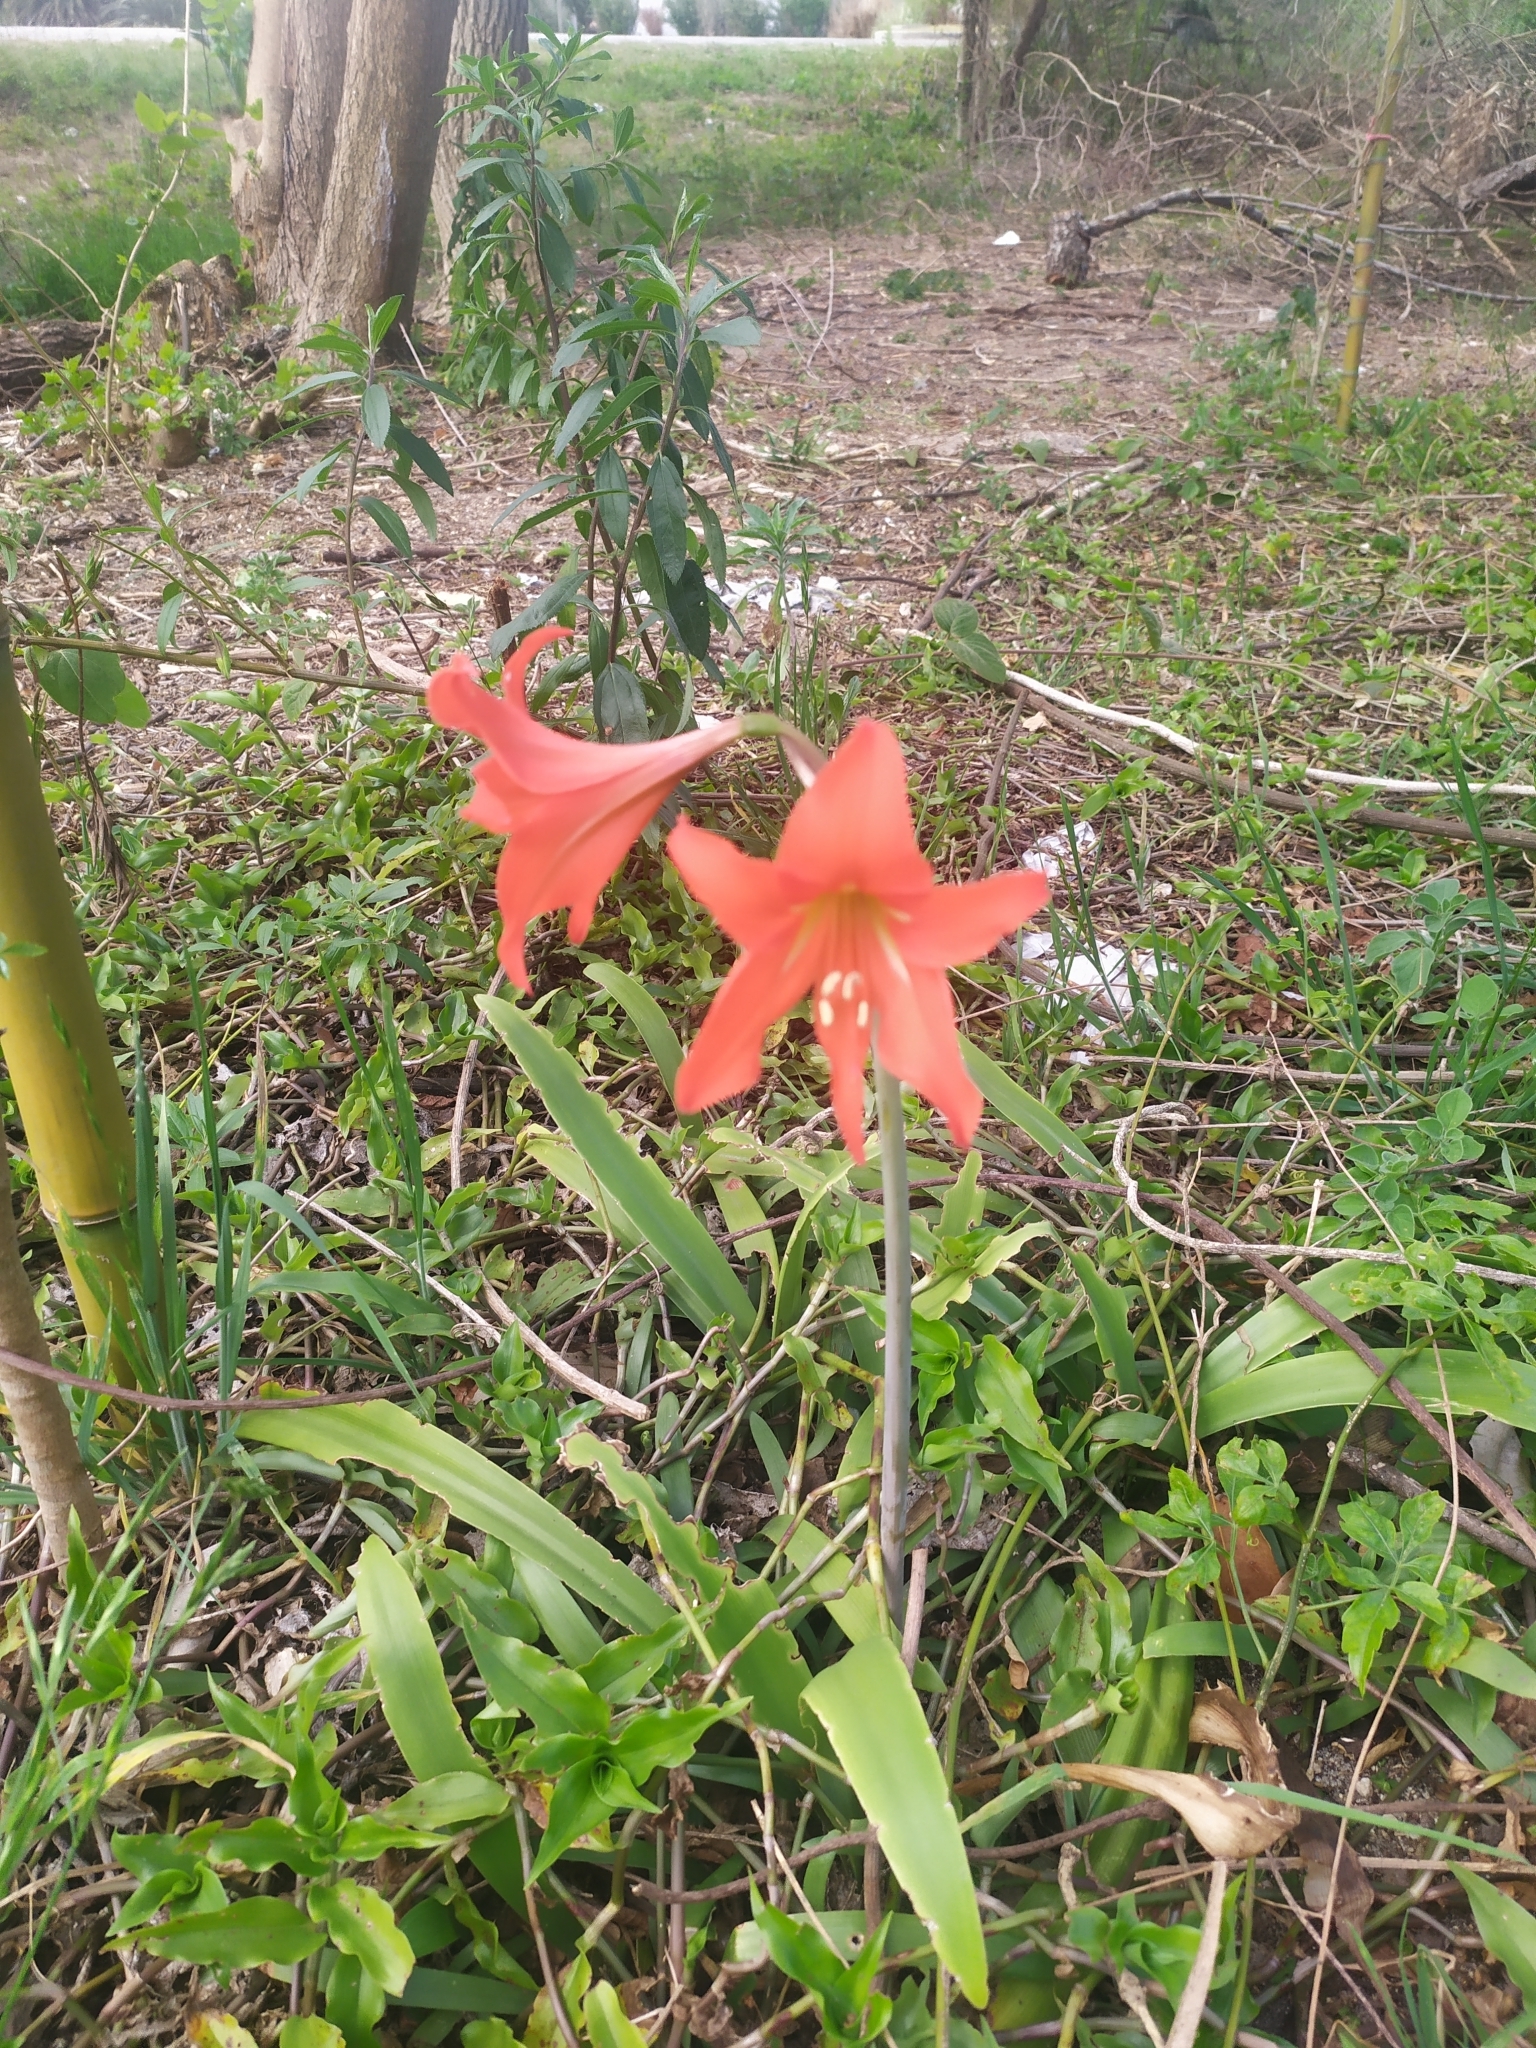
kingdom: Plantae
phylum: Tracheophyta
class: Liliopsida
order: Asparagales
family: Amaryllidaceae
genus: Hippeastrum
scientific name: Hippeastrum petiolatum
